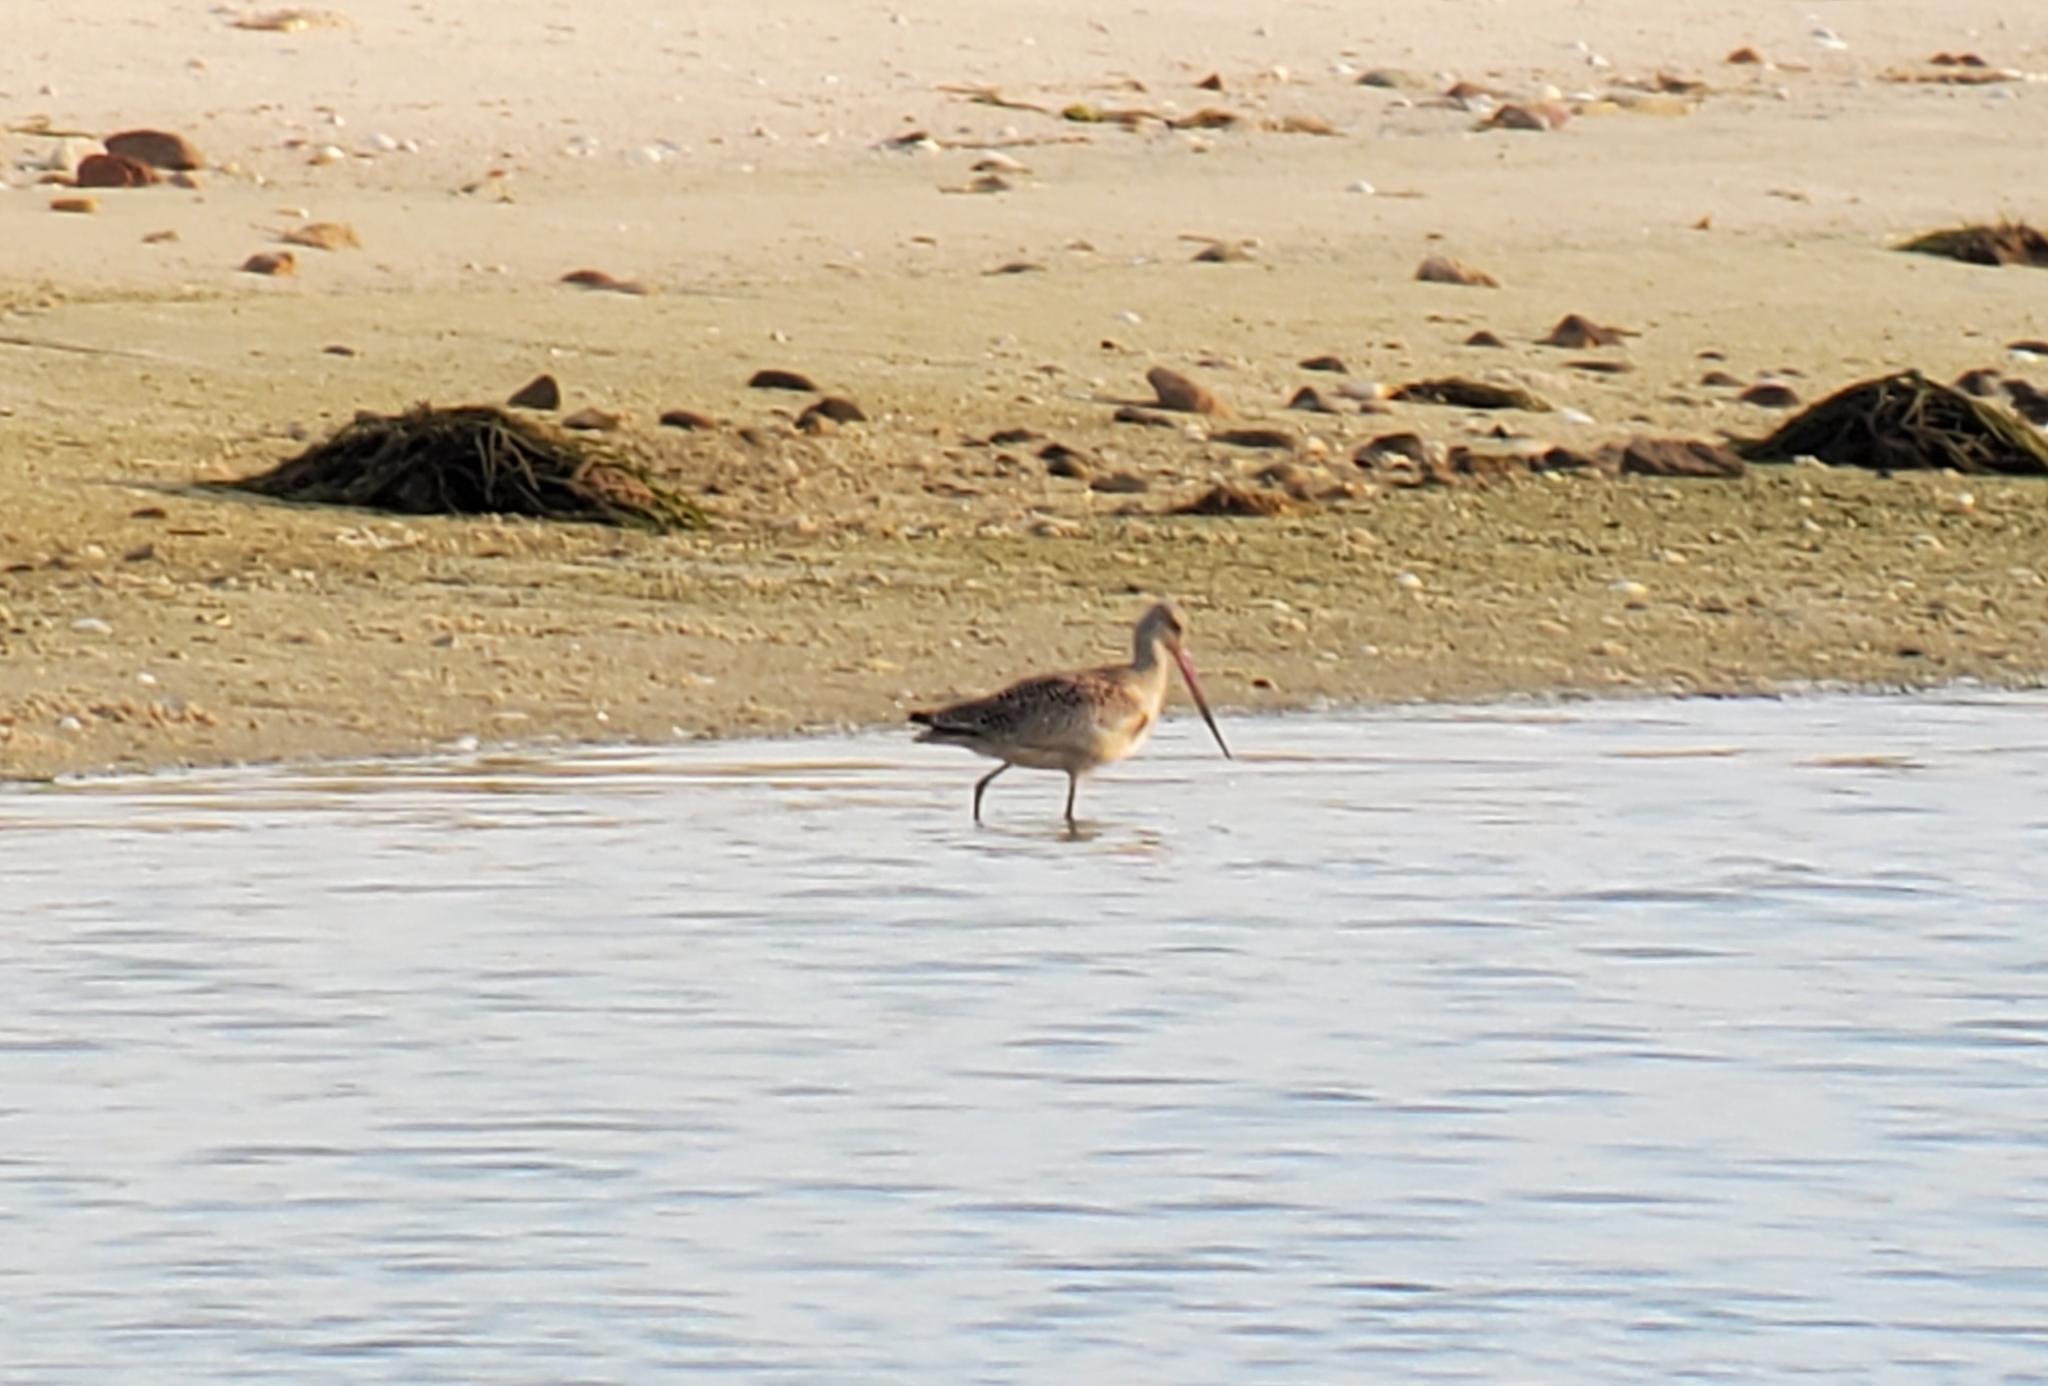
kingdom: Animalia
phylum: Chordata
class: Aves
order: Charadriiformes
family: Scolopacidae
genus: Limosa
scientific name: Limosa fedoa
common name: Marbled godwit
